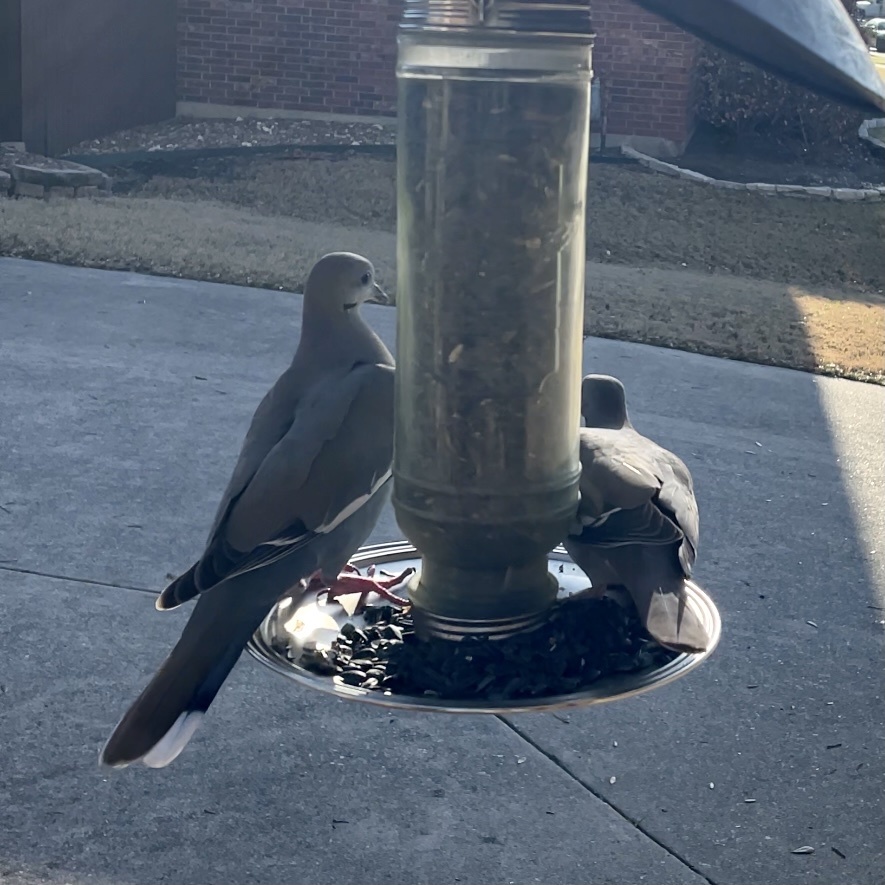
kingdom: Animalia
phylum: Chordata
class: Aves
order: Columbiformes
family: Columbidae
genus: Zenaida
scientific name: Zenaida asiatica
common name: White-winged dove
